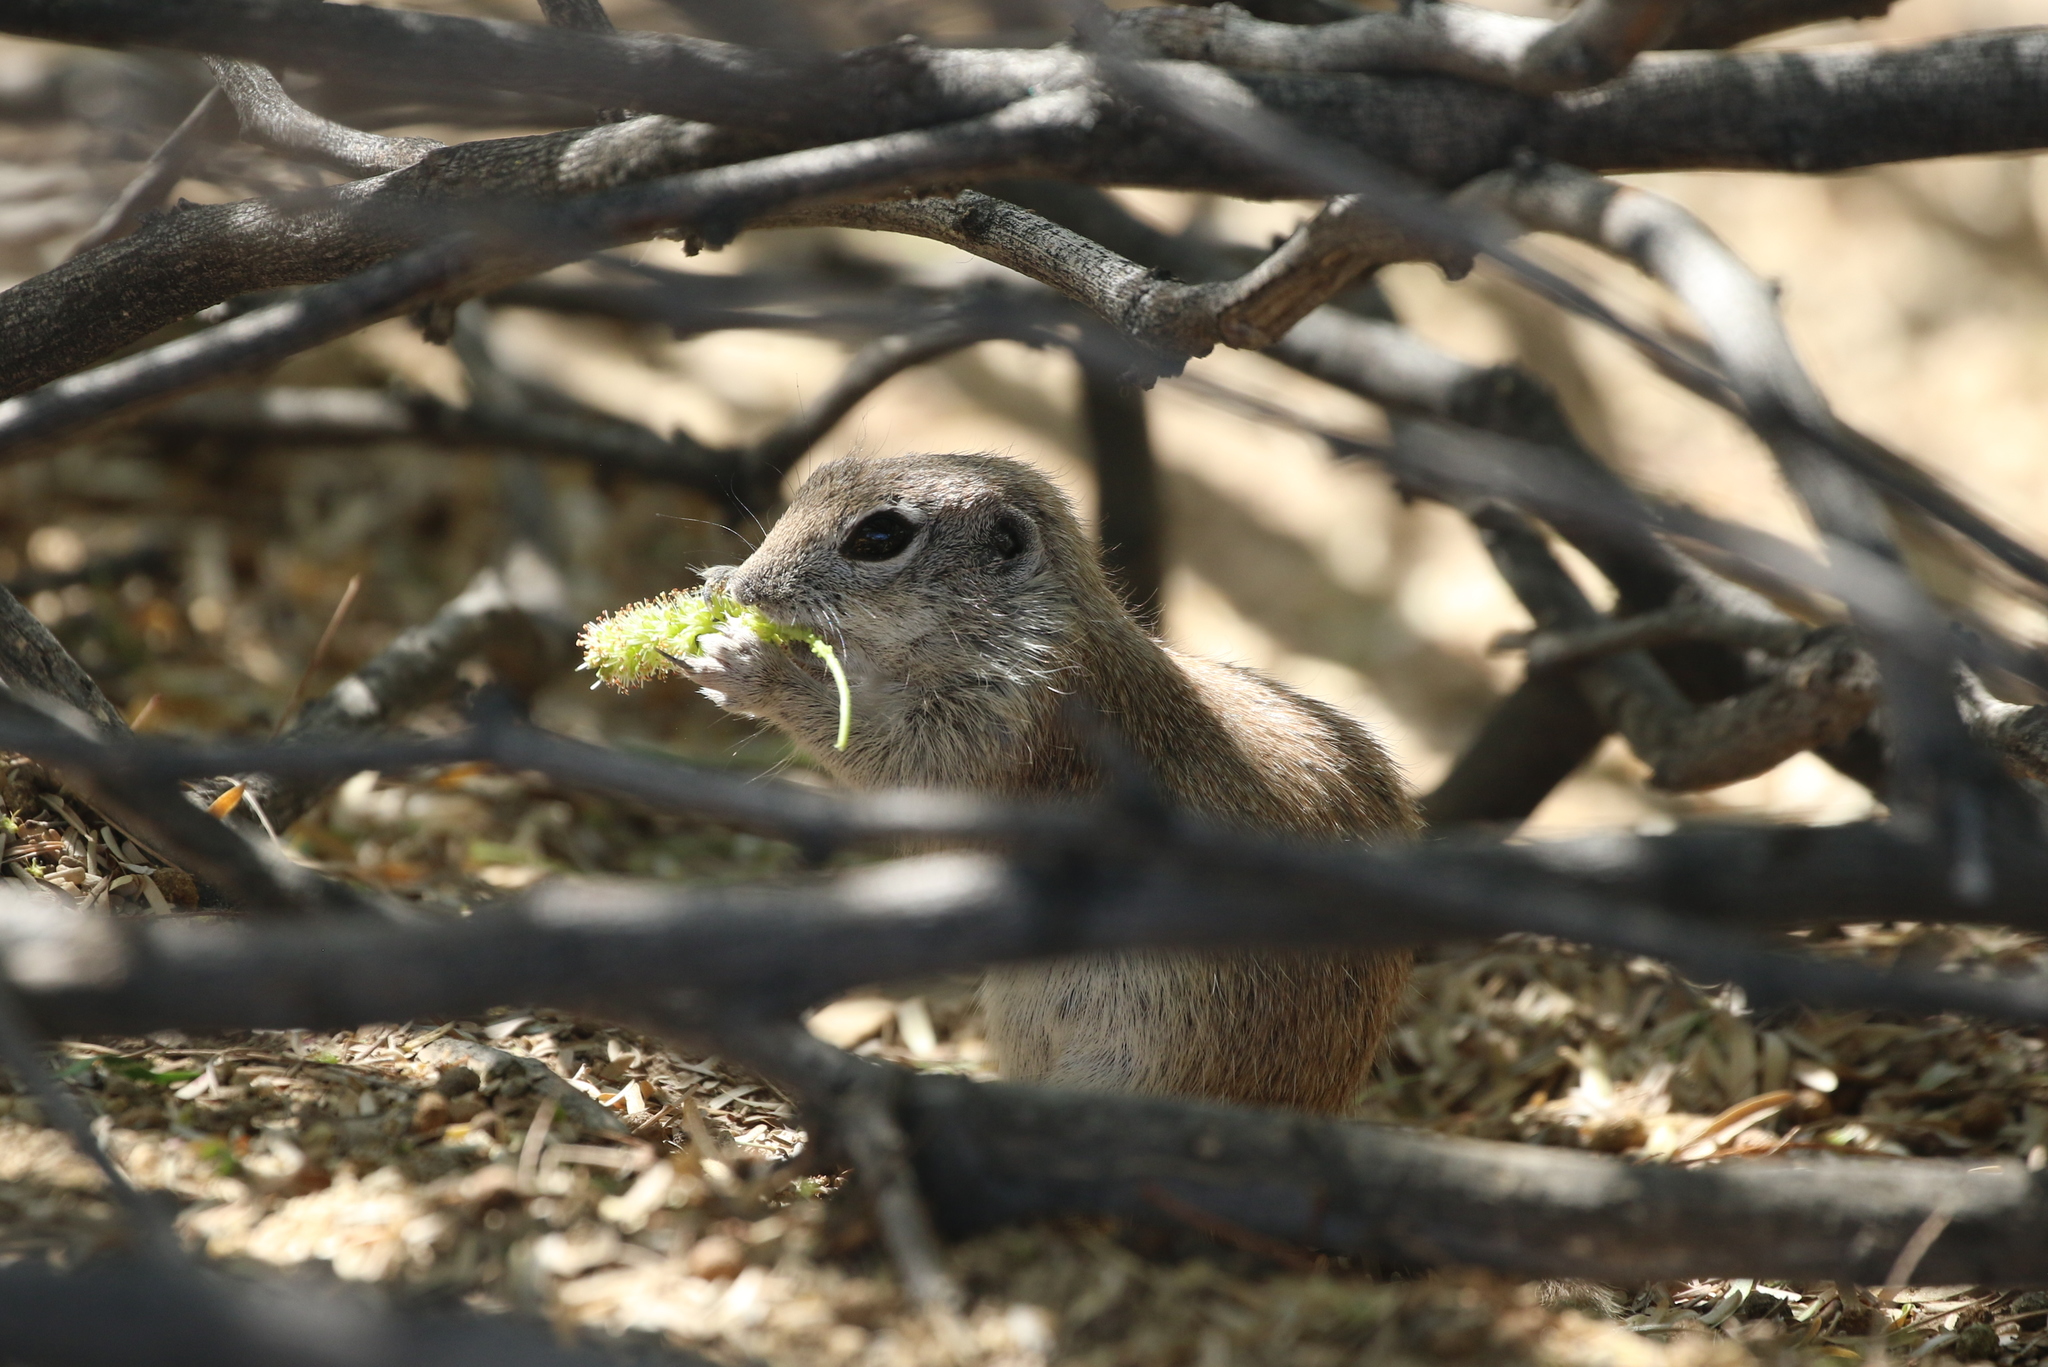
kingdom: Animalia
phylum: Chordata
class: Mammalia
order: Rodentia
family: Sciuridae
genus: Xerospermophilus
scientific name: Xerospermophilus tereticaudus
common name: Round-tailed ground squirrel
